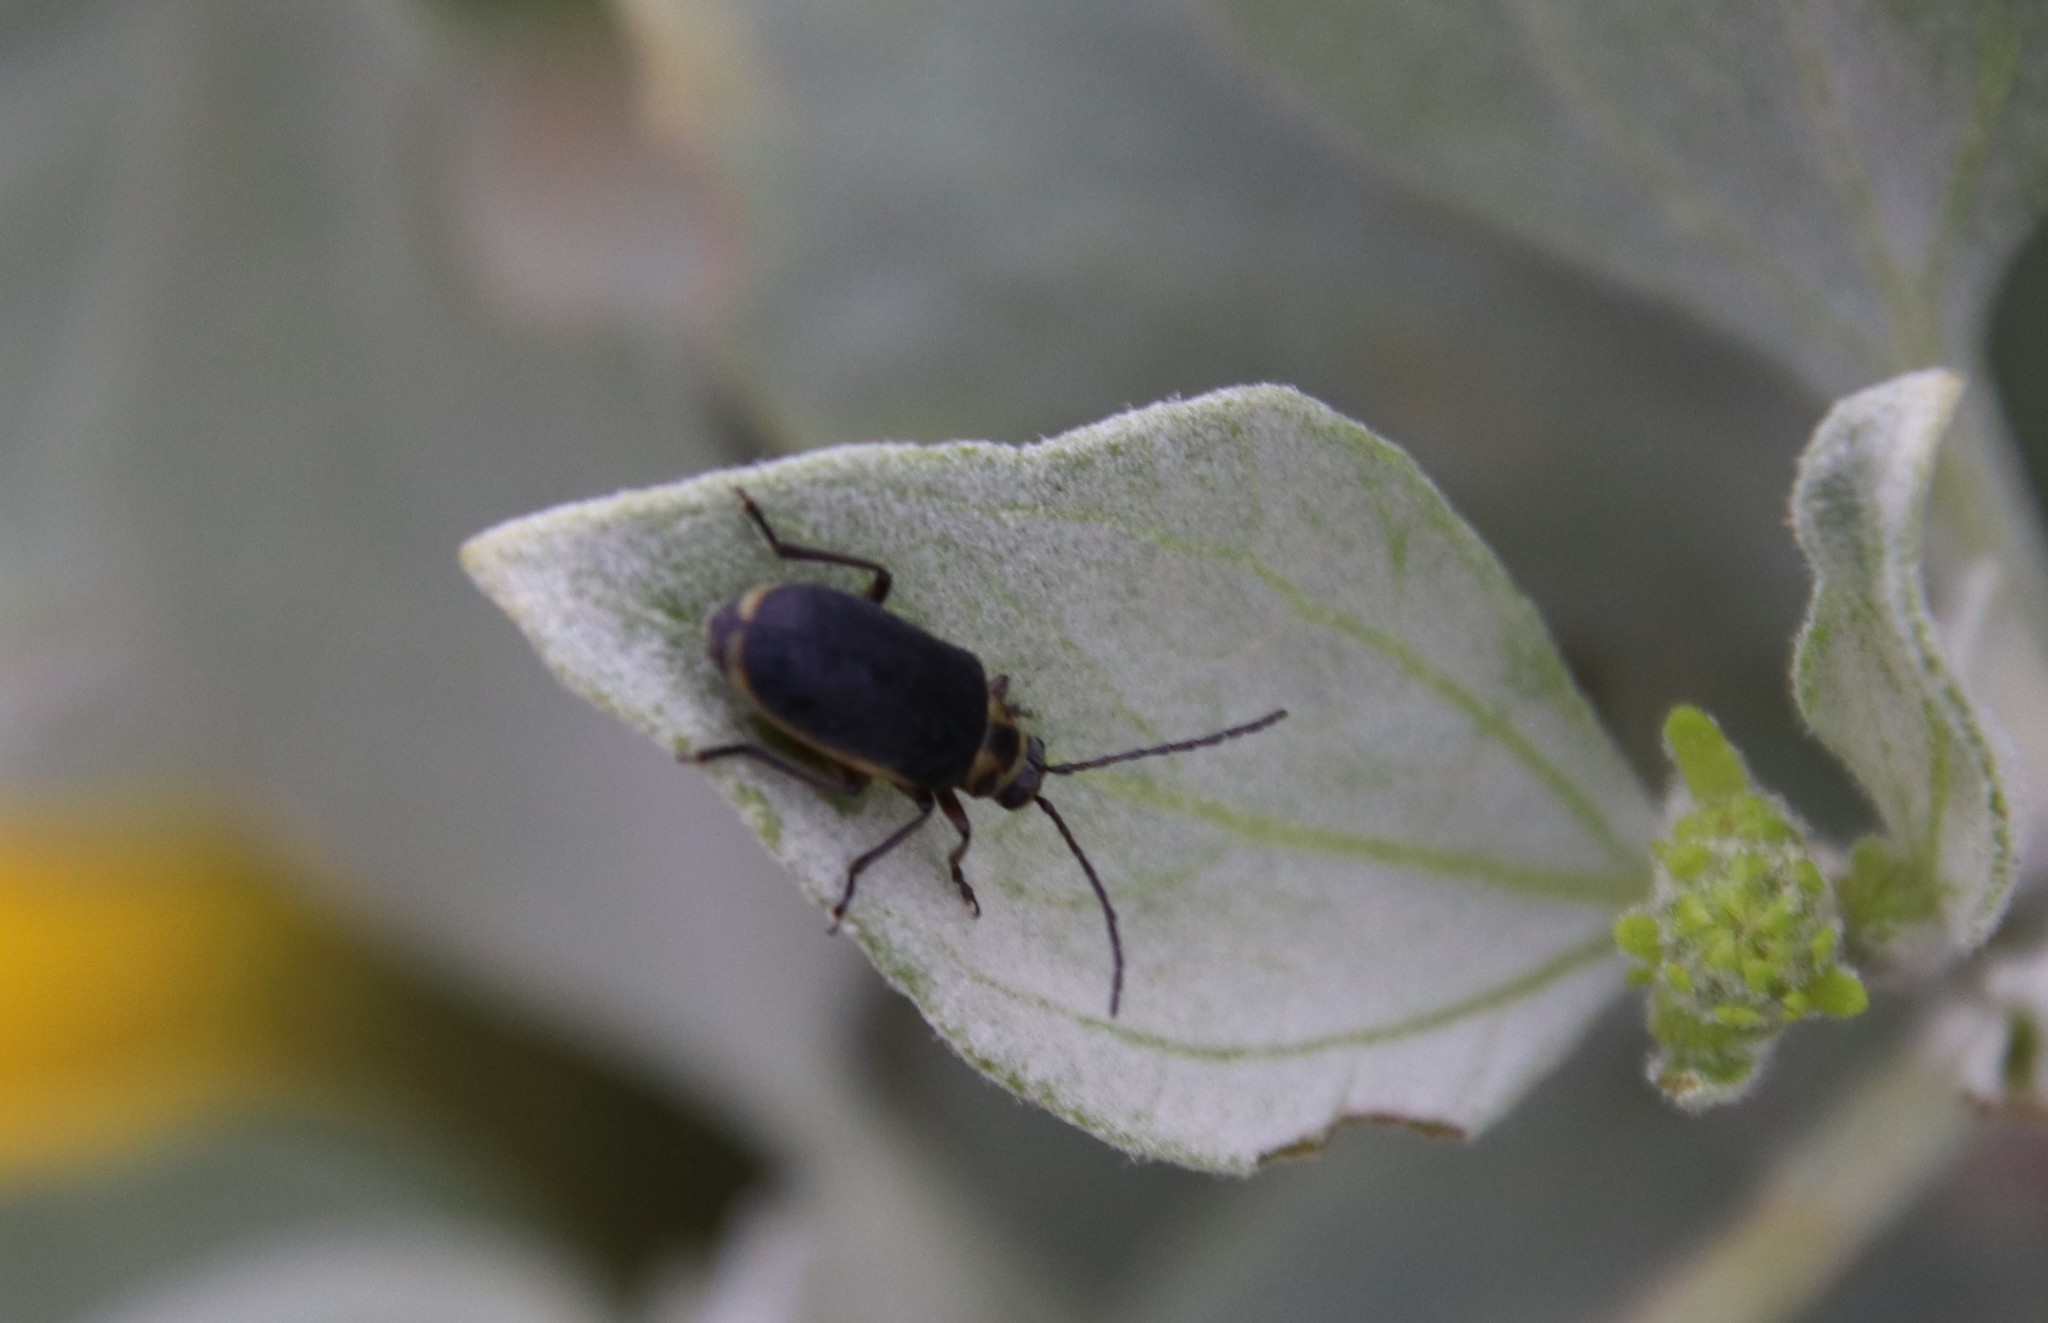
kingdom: Animalia
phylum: Arthropoda
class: Insecta
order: Coleoptera
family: Chrysomelidae
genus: Trirhabda
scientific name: Trirhabda geminata
